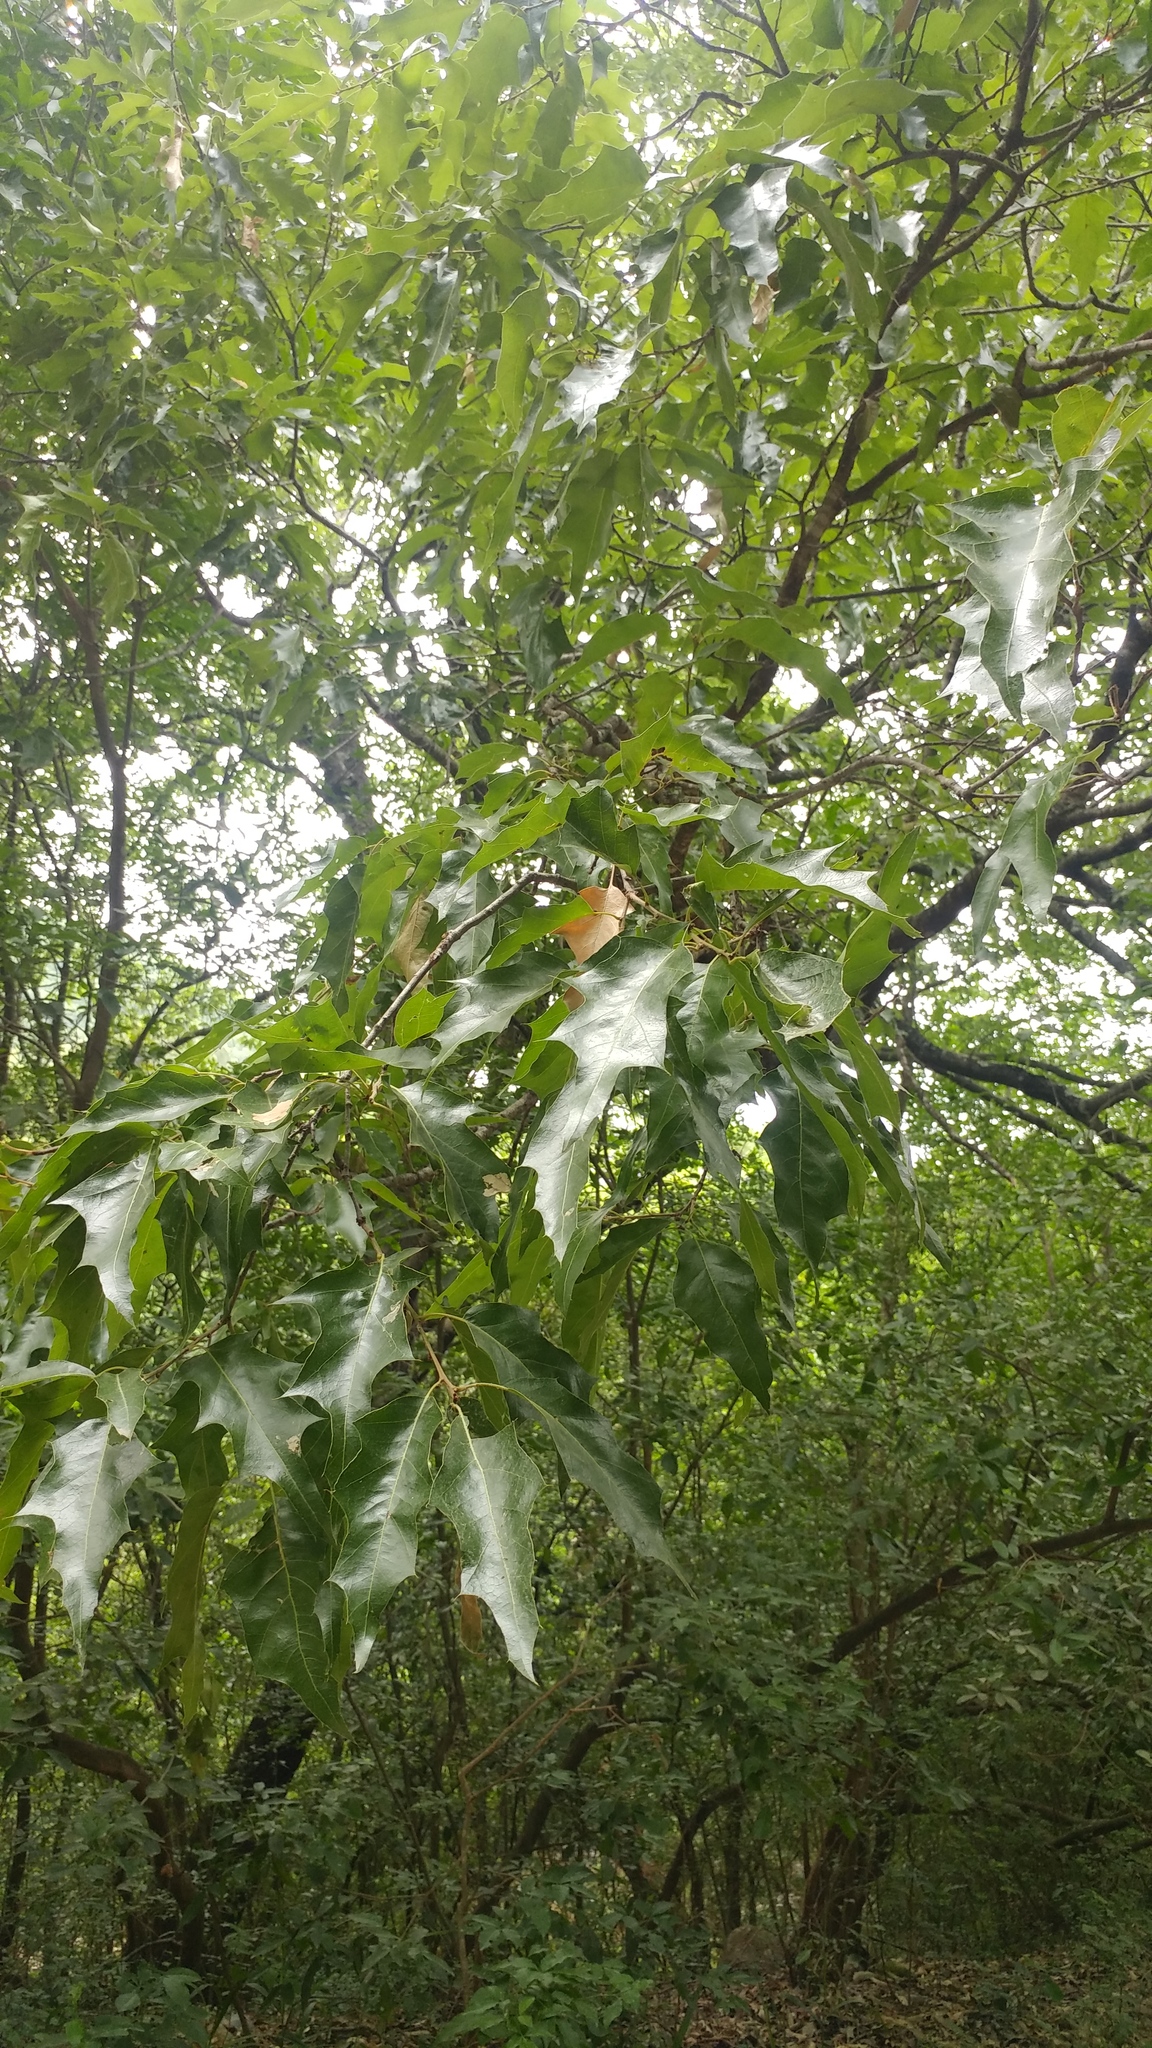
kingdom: Plantae
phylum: Tracheophyta
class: Magnoliopsida
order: Fagales
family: Fagaceae
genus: Quercus
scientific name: Quercus canbyi
